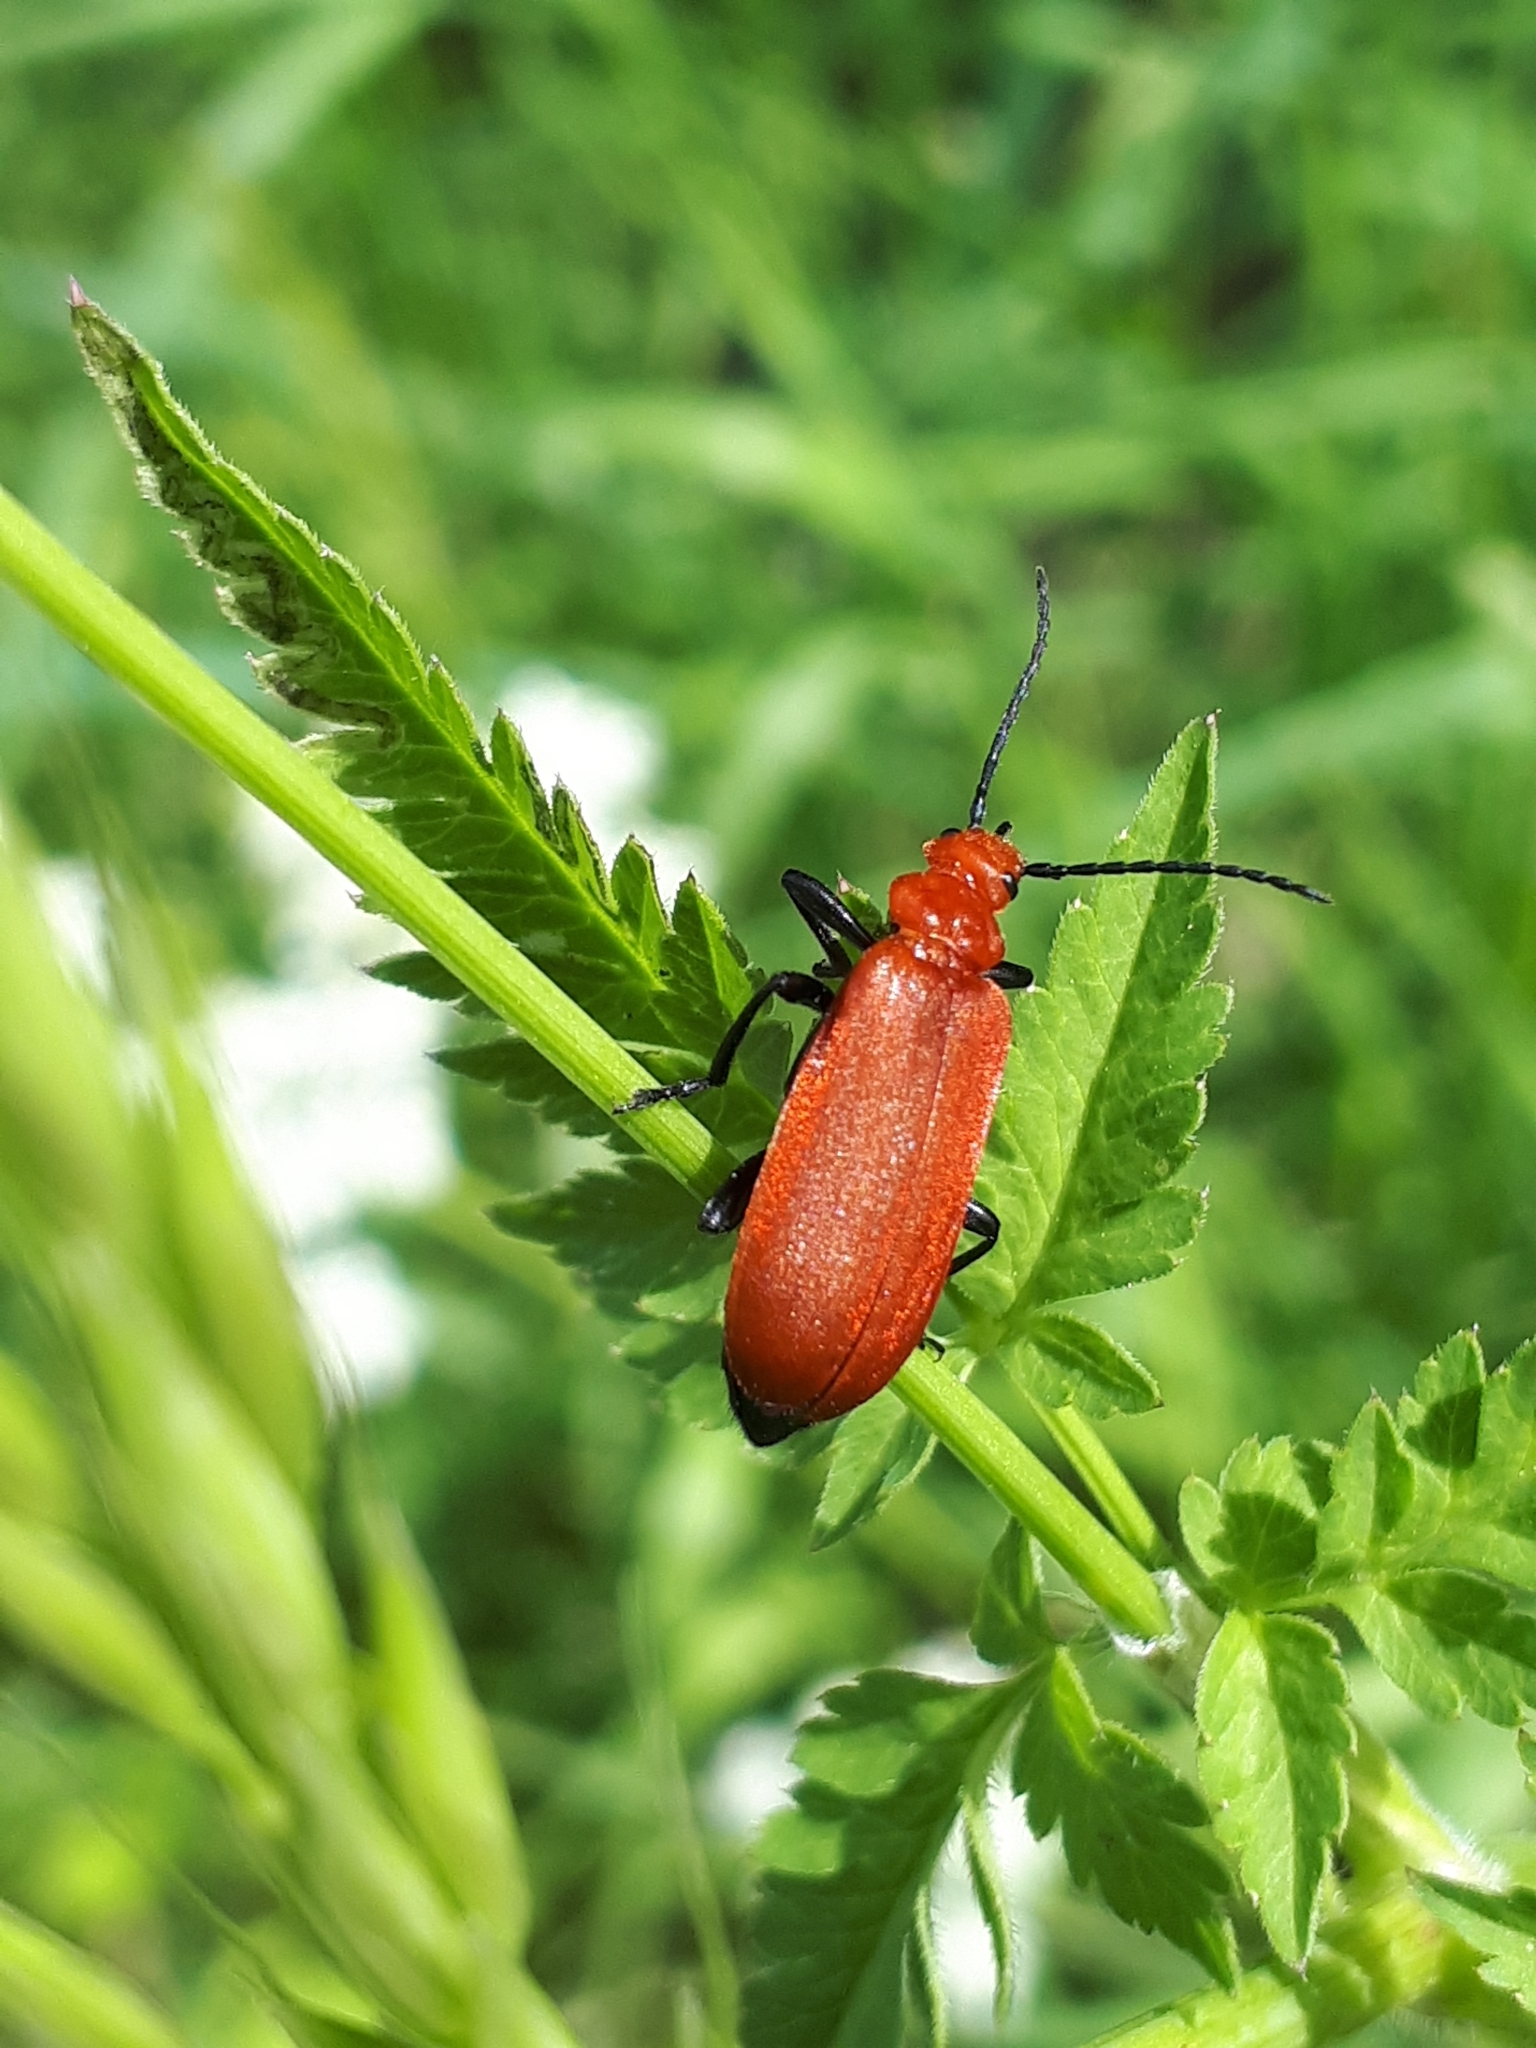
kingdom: Animalia
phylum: Arthropoda
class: Insecta
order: Coleoptera
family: Pyrochroidae
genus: Pyrochroa
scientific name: Pyrochroa serraticornis
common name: Red-headed cardinal beetle
